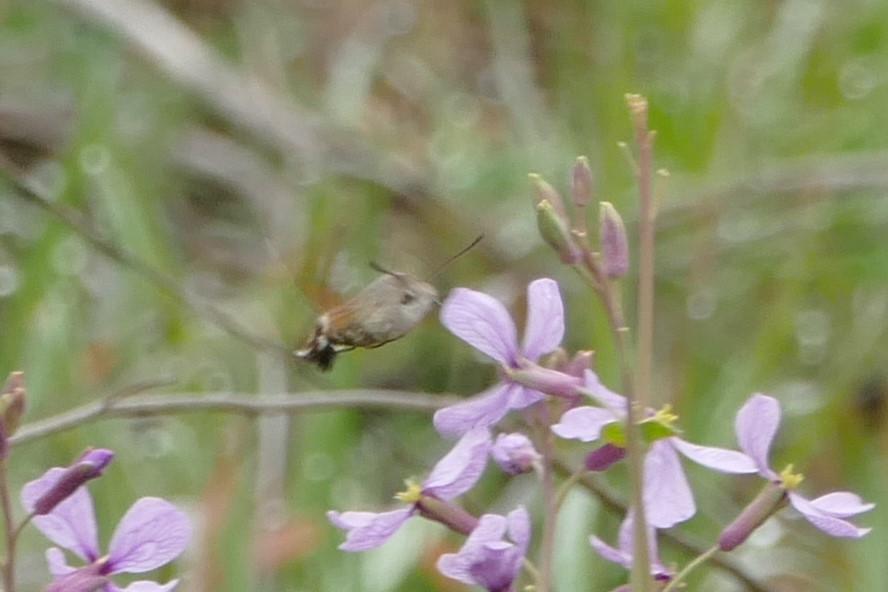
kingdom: Animalia
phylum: Arthropoda
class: Insecta
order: Lepidoptera
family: Sphingidae
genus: Macroglossum
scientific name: Macroglossum stellatarum
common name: Humming-bird hawk-moth
